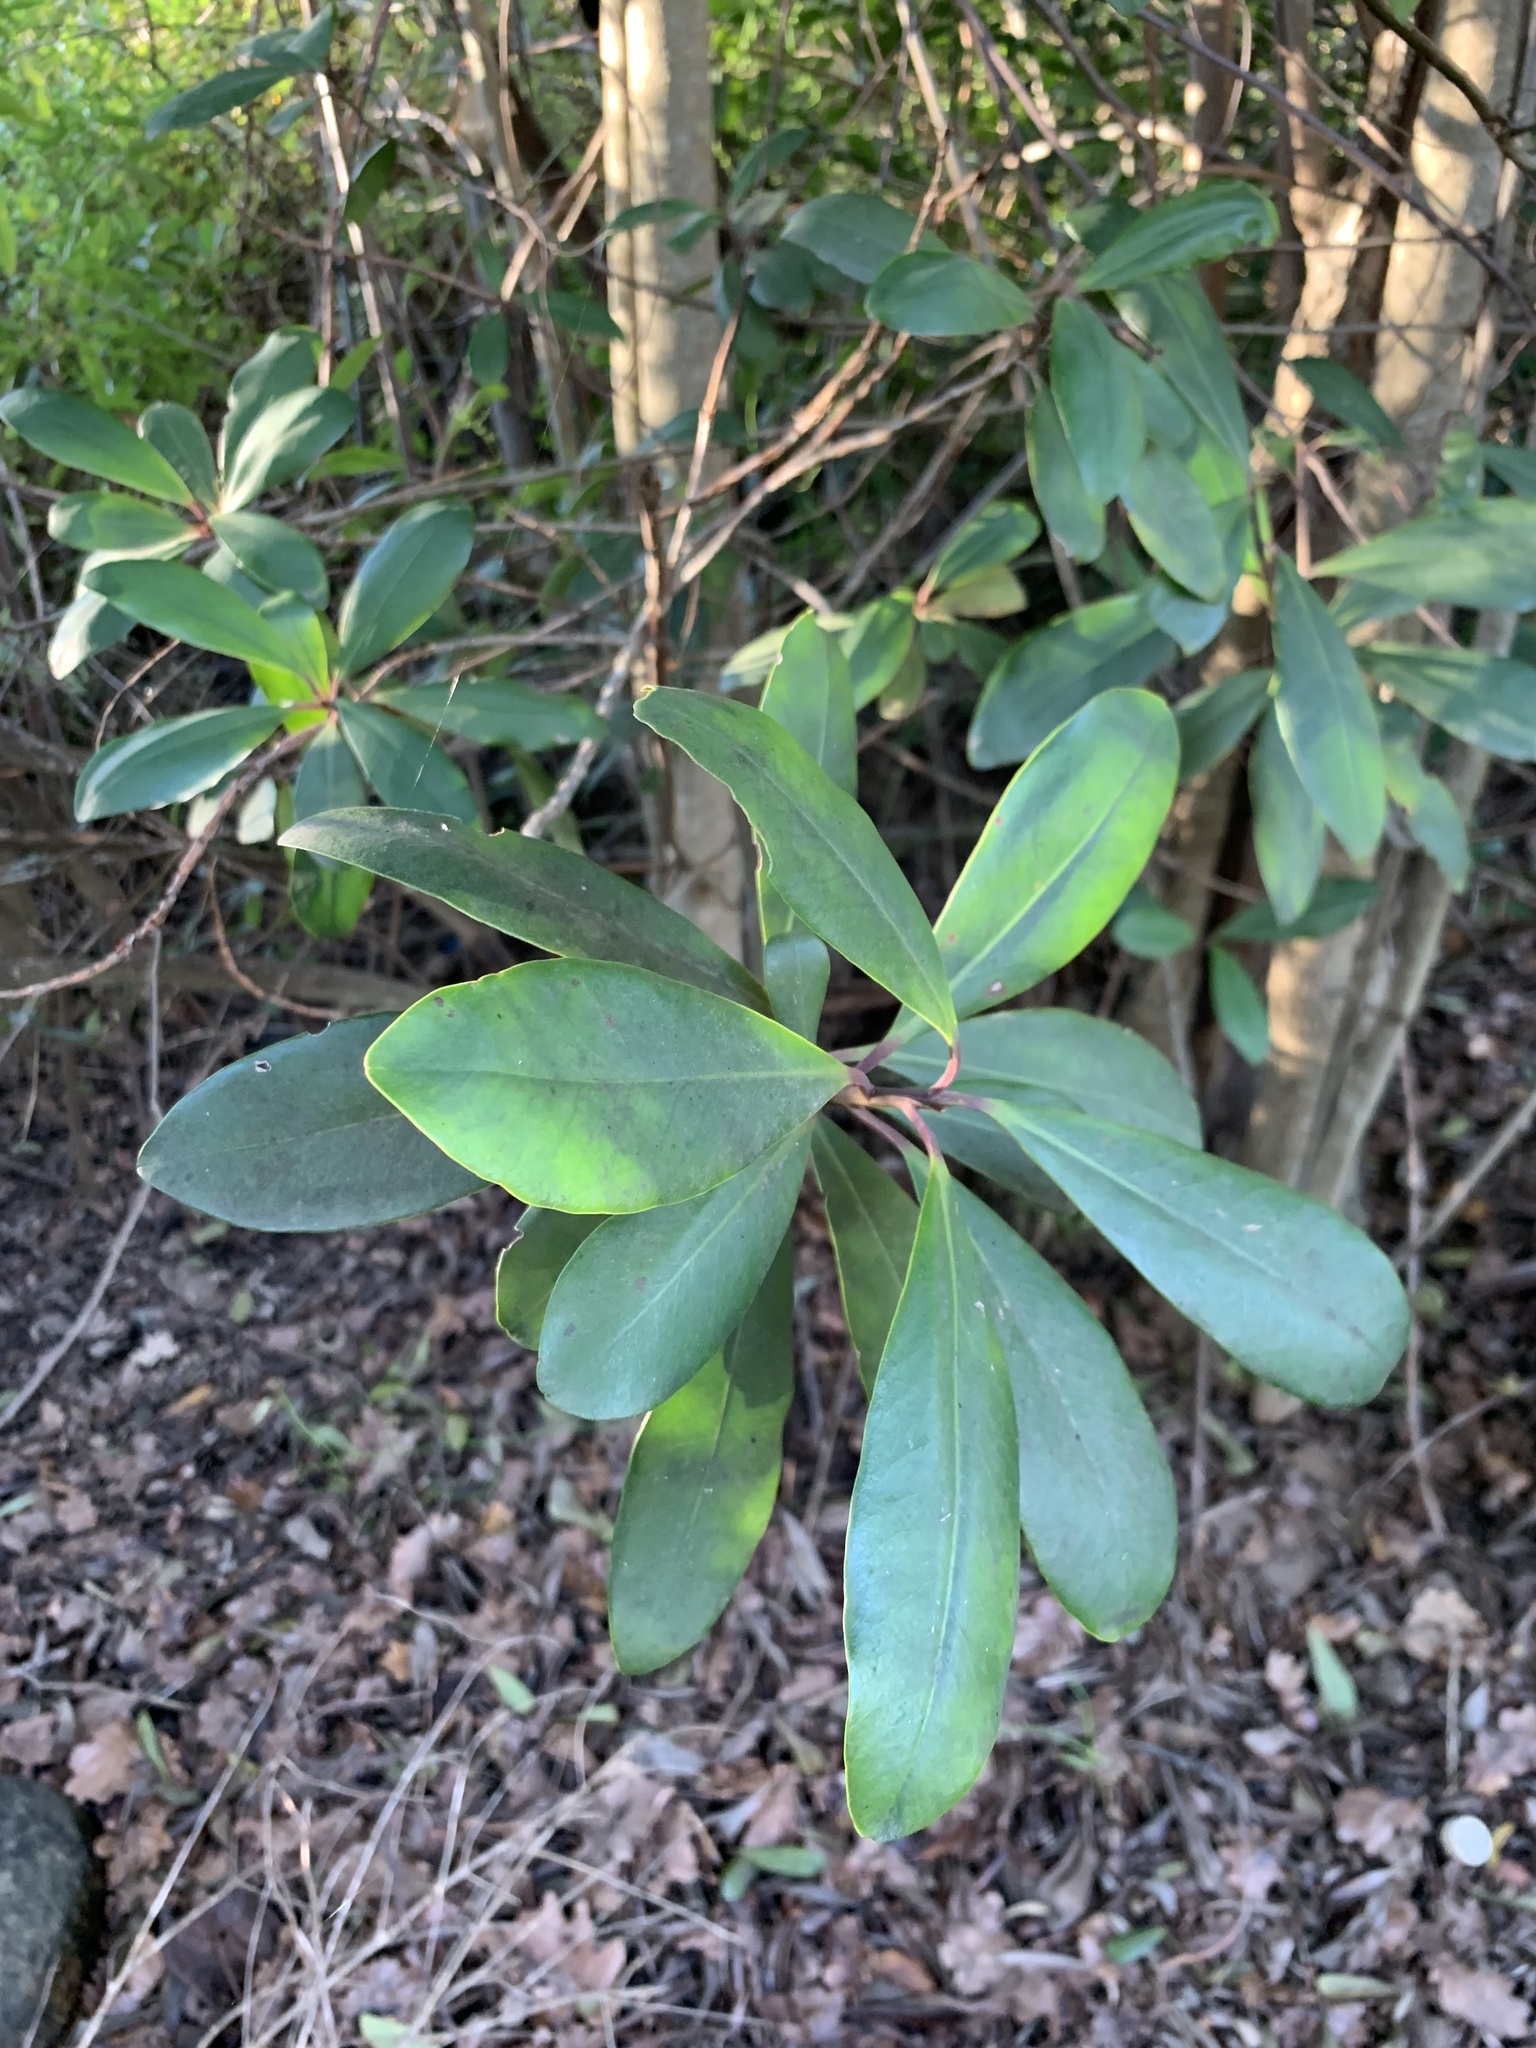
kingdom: Plantae
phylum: Tracheophyta
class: Magnoliopsida
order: Ericales
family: Primulaceae
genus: Myrsine
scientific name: Myrsine melanophloeos
